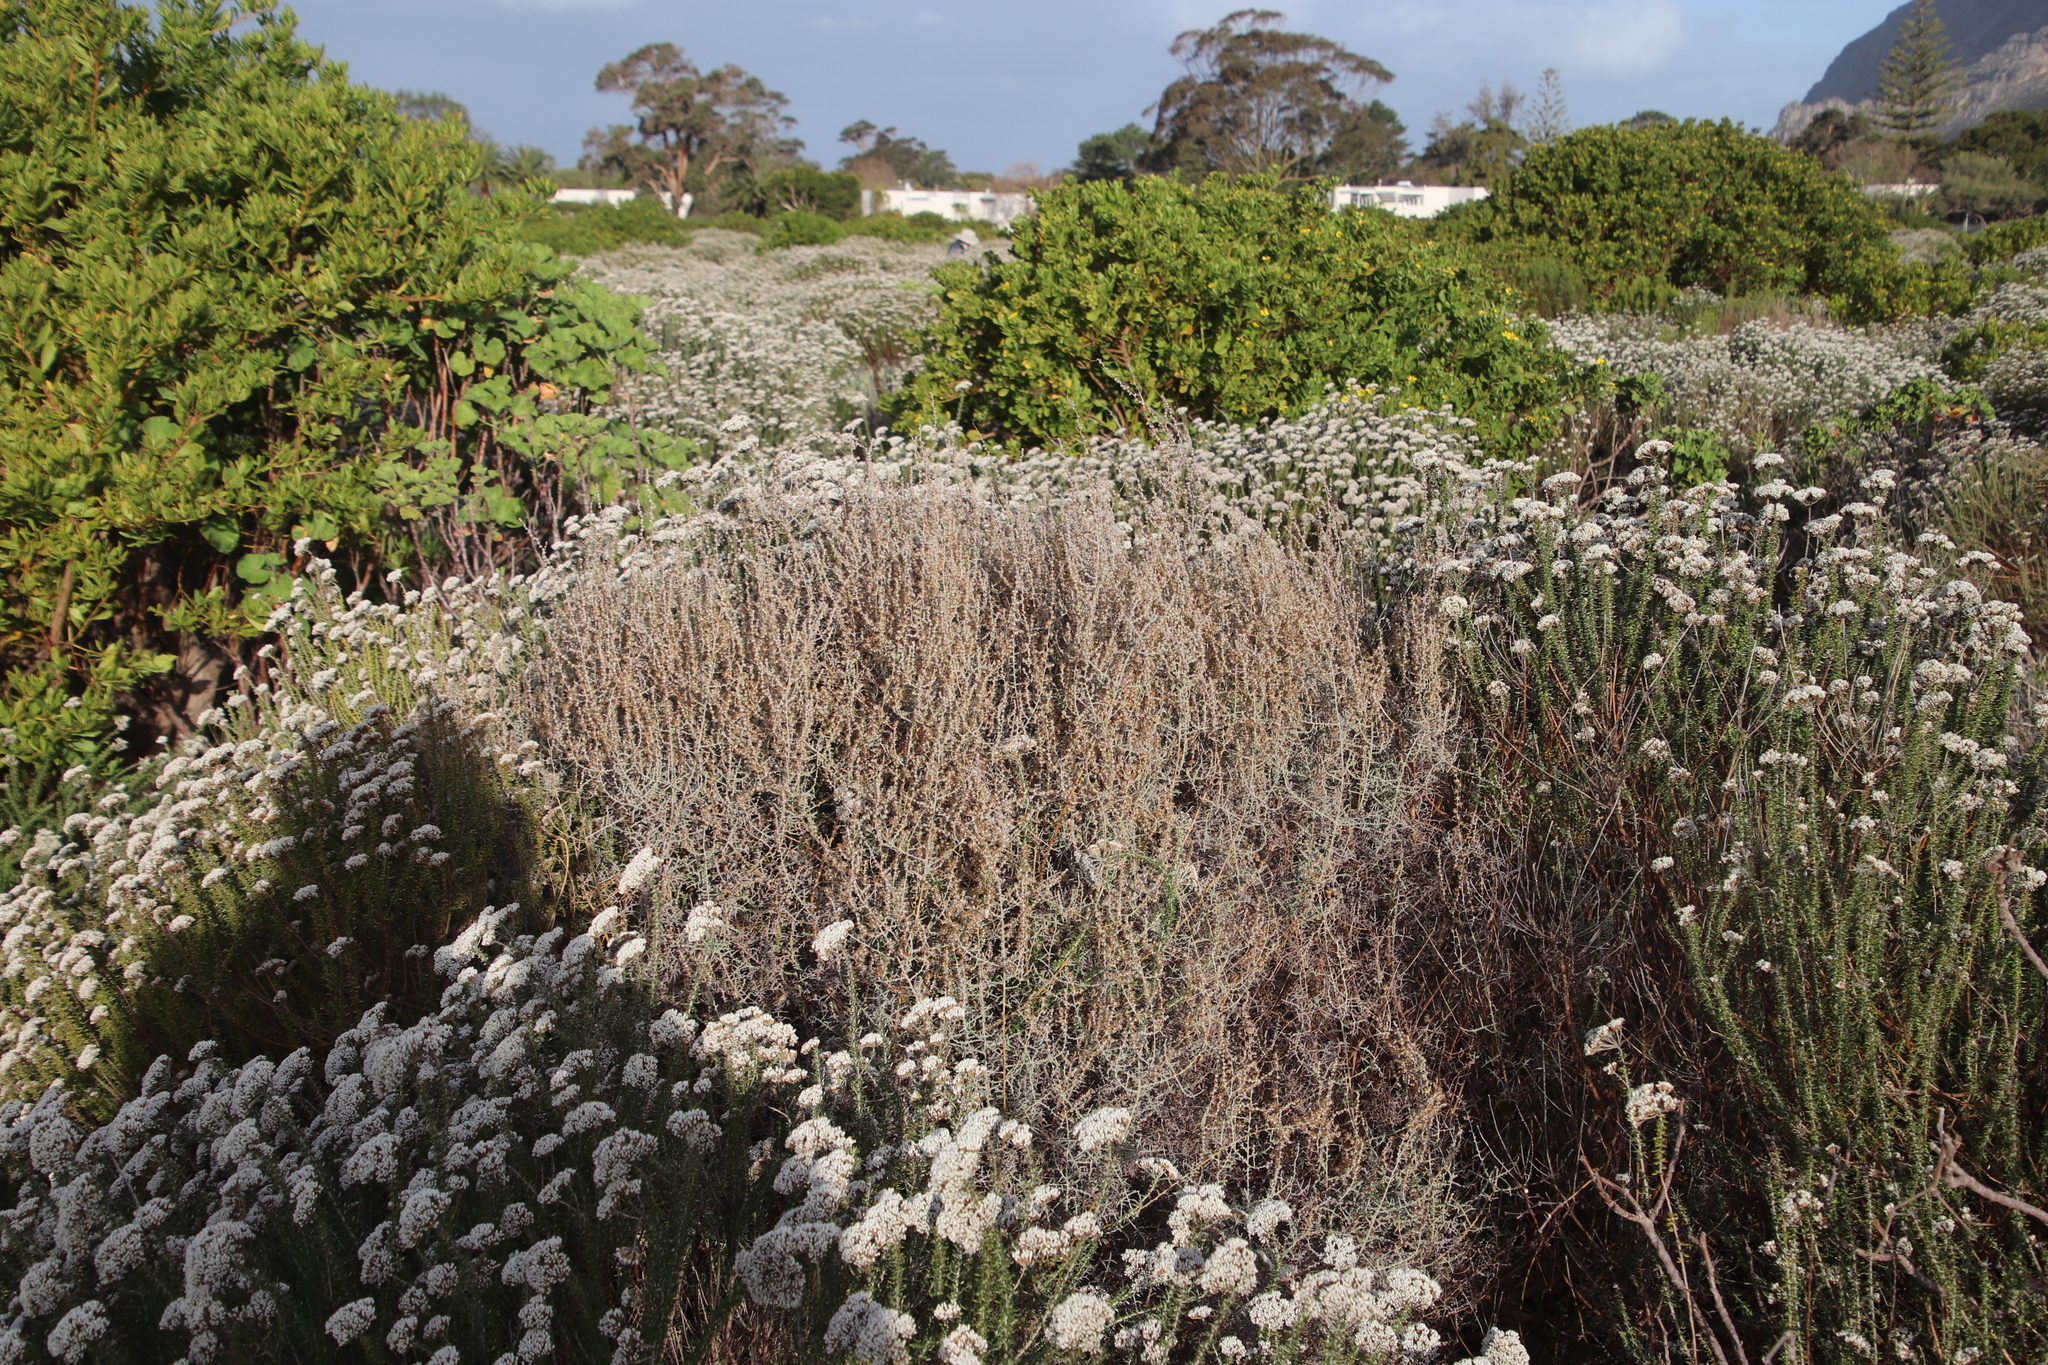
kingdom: Plantae
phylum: Tracheophyta
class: Magnoliopsida
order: Asterales
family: Asteraceae
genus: Seriphium
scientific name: Seriphium plumosum
